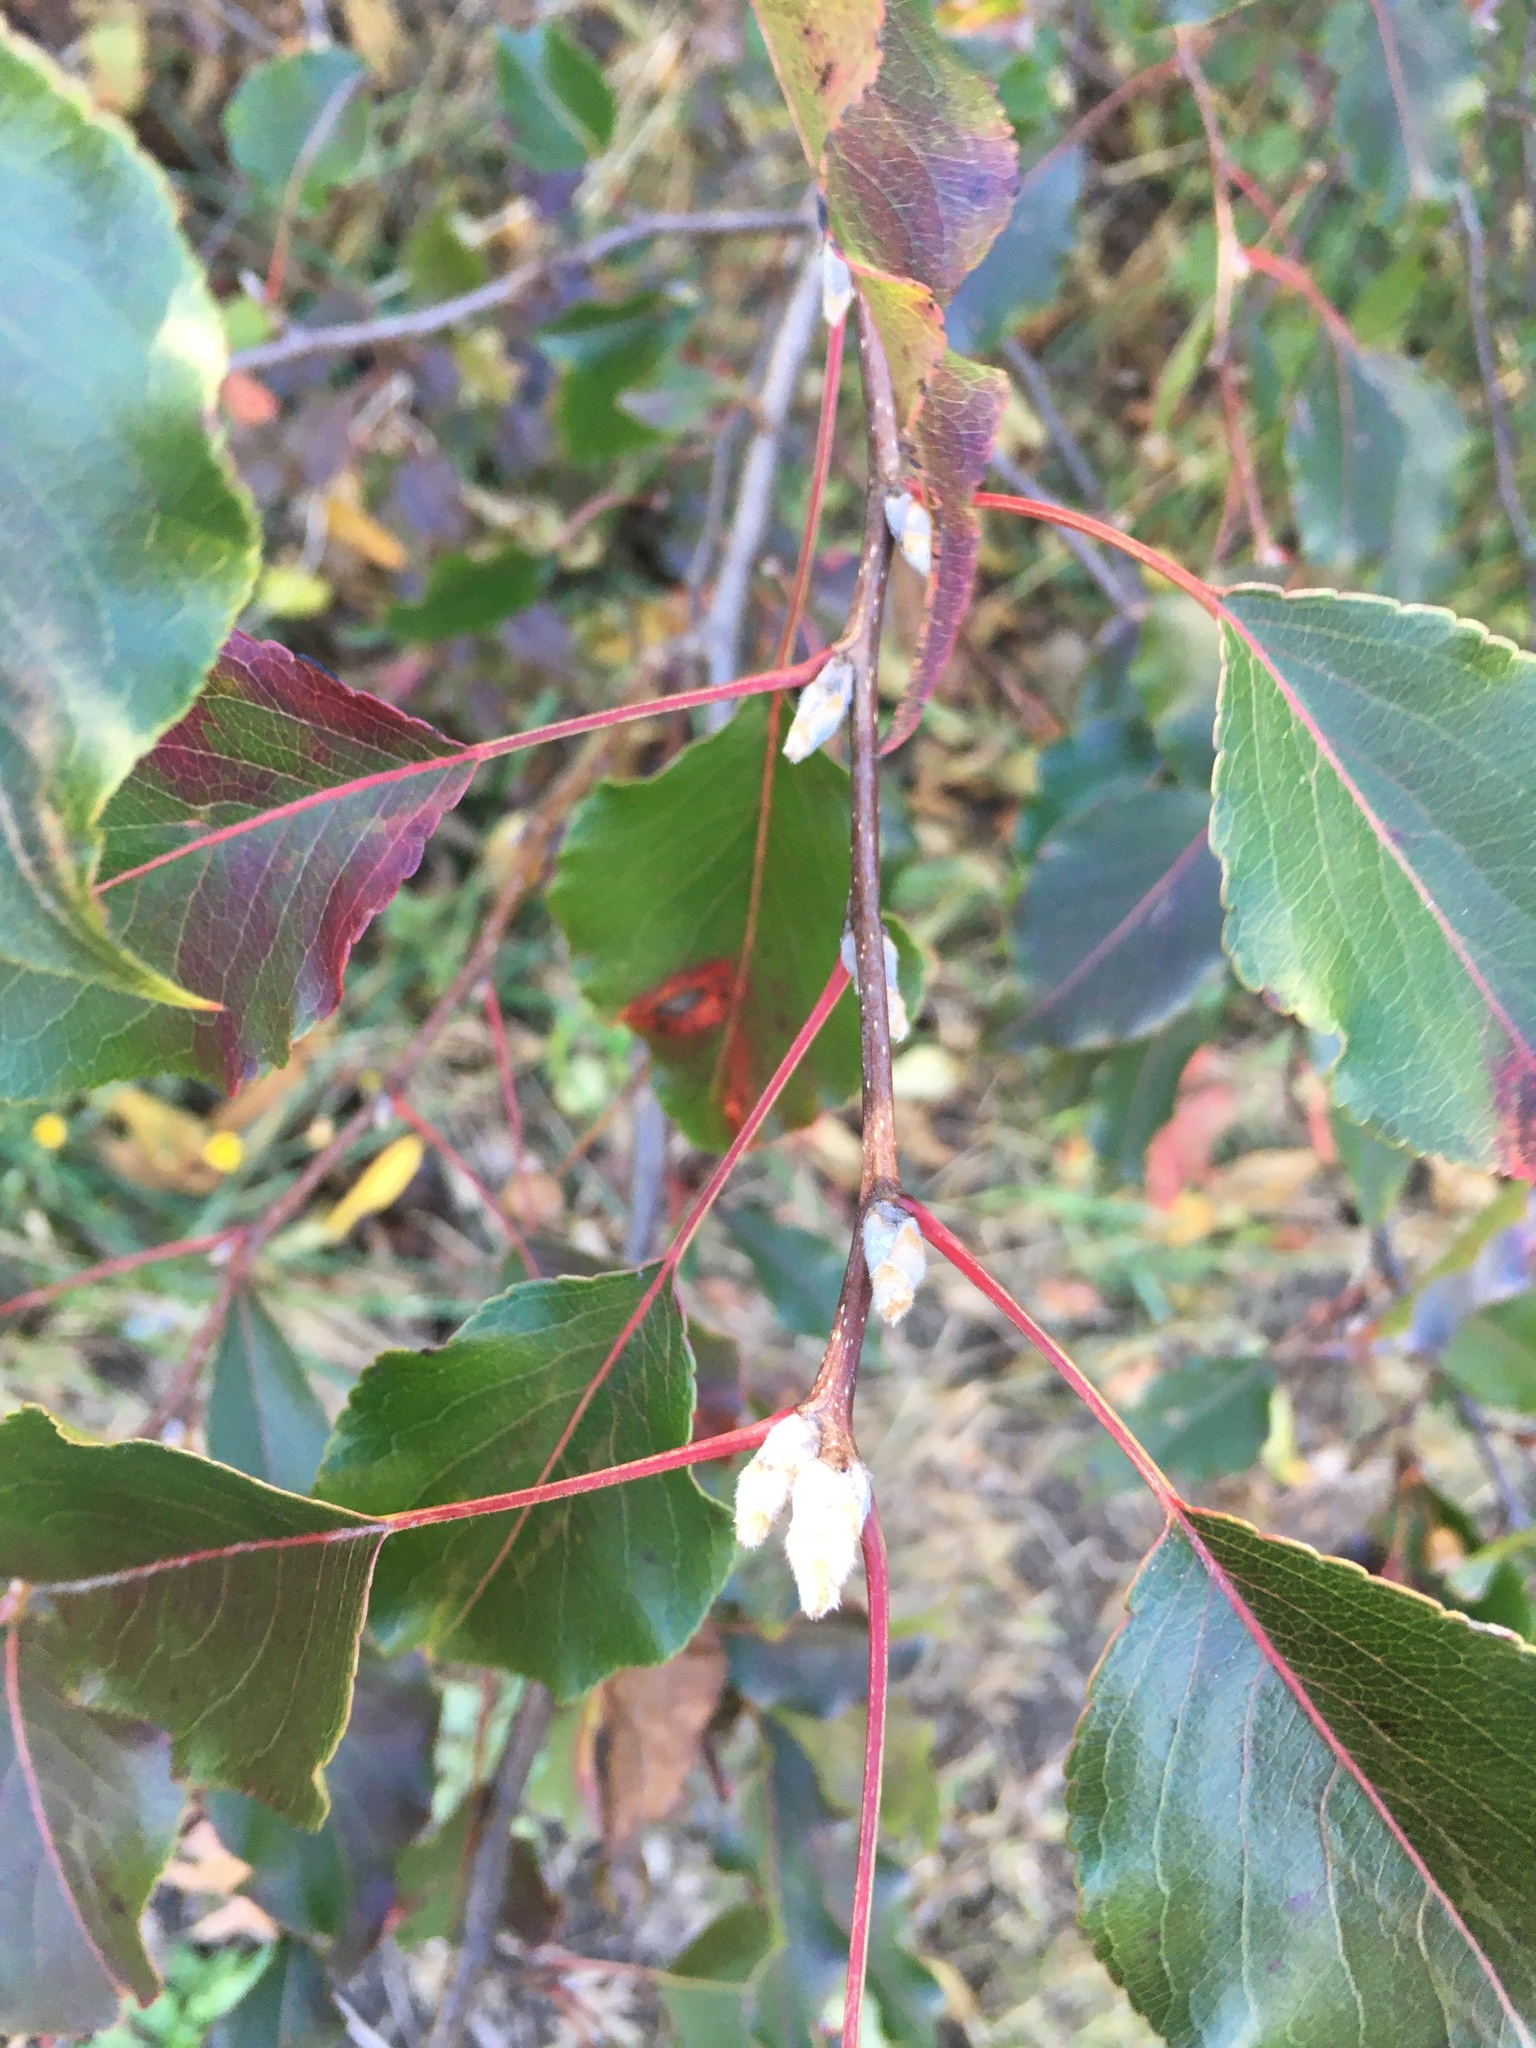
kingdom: Plantae
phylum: Tracheophyta
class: Magnoliopsida
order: Rosales
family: Rosaceae
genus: Pyrus
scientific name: Pyrus calleryana
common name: Callery pear
